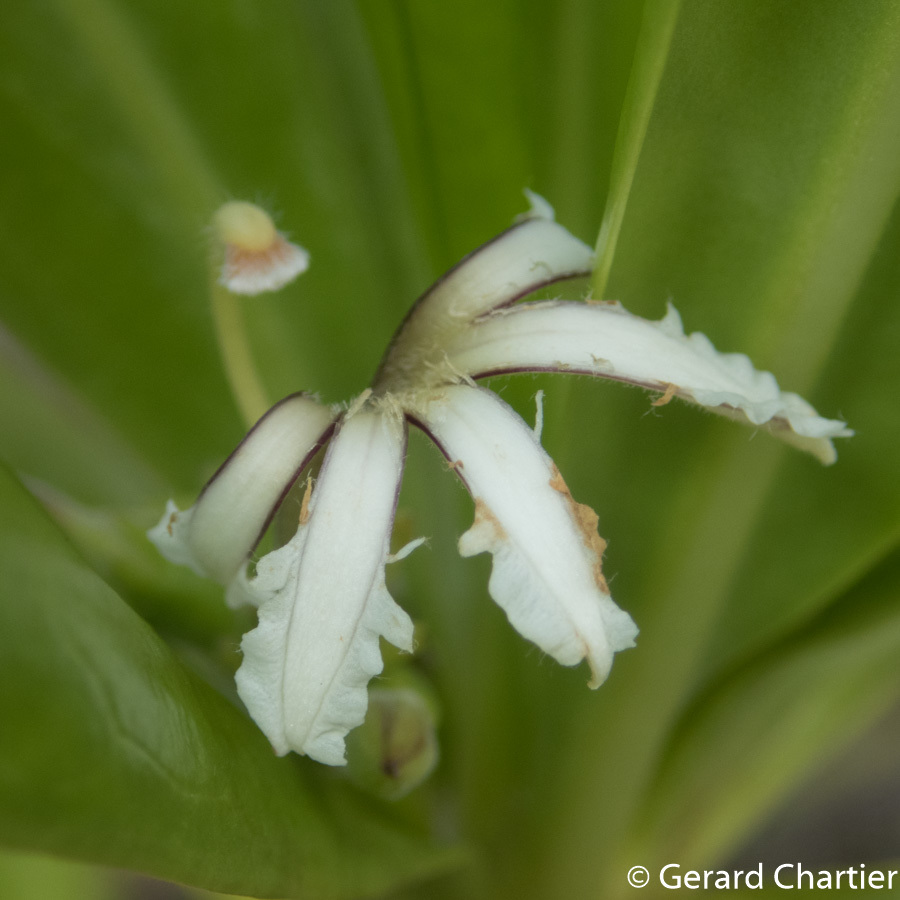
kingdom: Plantae
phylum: Tracheophyta
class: Magnoliopsida
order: Asterales
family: Goodeniaceae
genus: Scaevola
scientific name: Scaevola taccada
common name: Sea lettucetree
